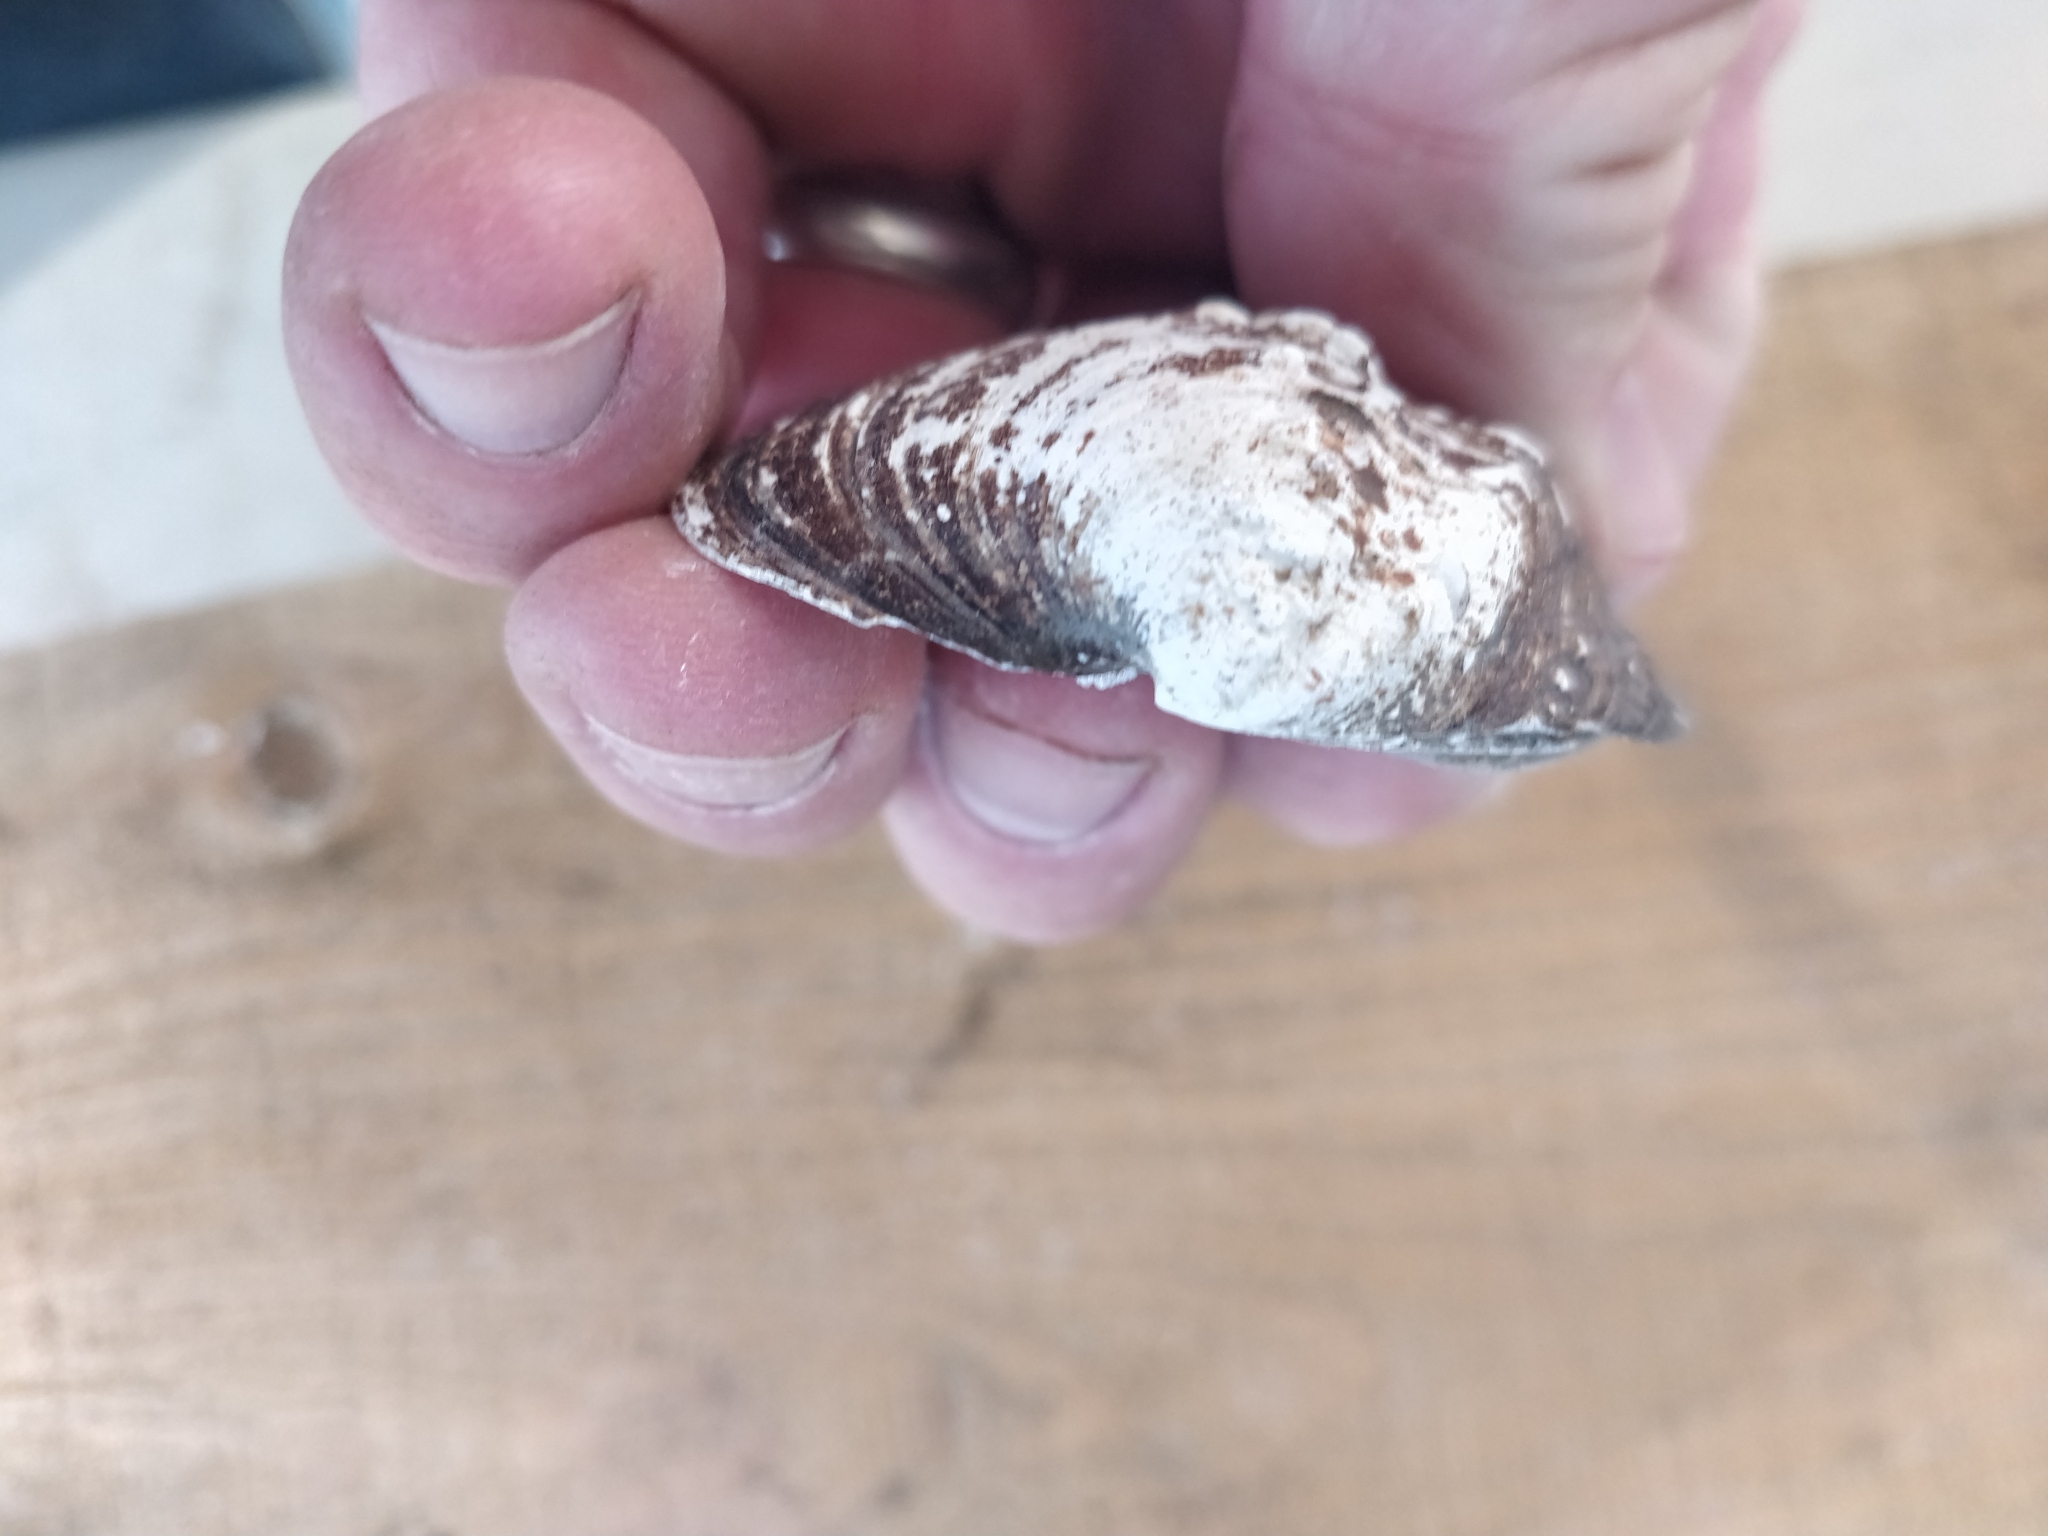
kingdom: Animalia
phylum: Mollusca
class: Bivalvia
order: Unionida
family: Unionidae
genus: Quadrula
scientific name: Quadrula quadrula
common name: Mapleleaf
